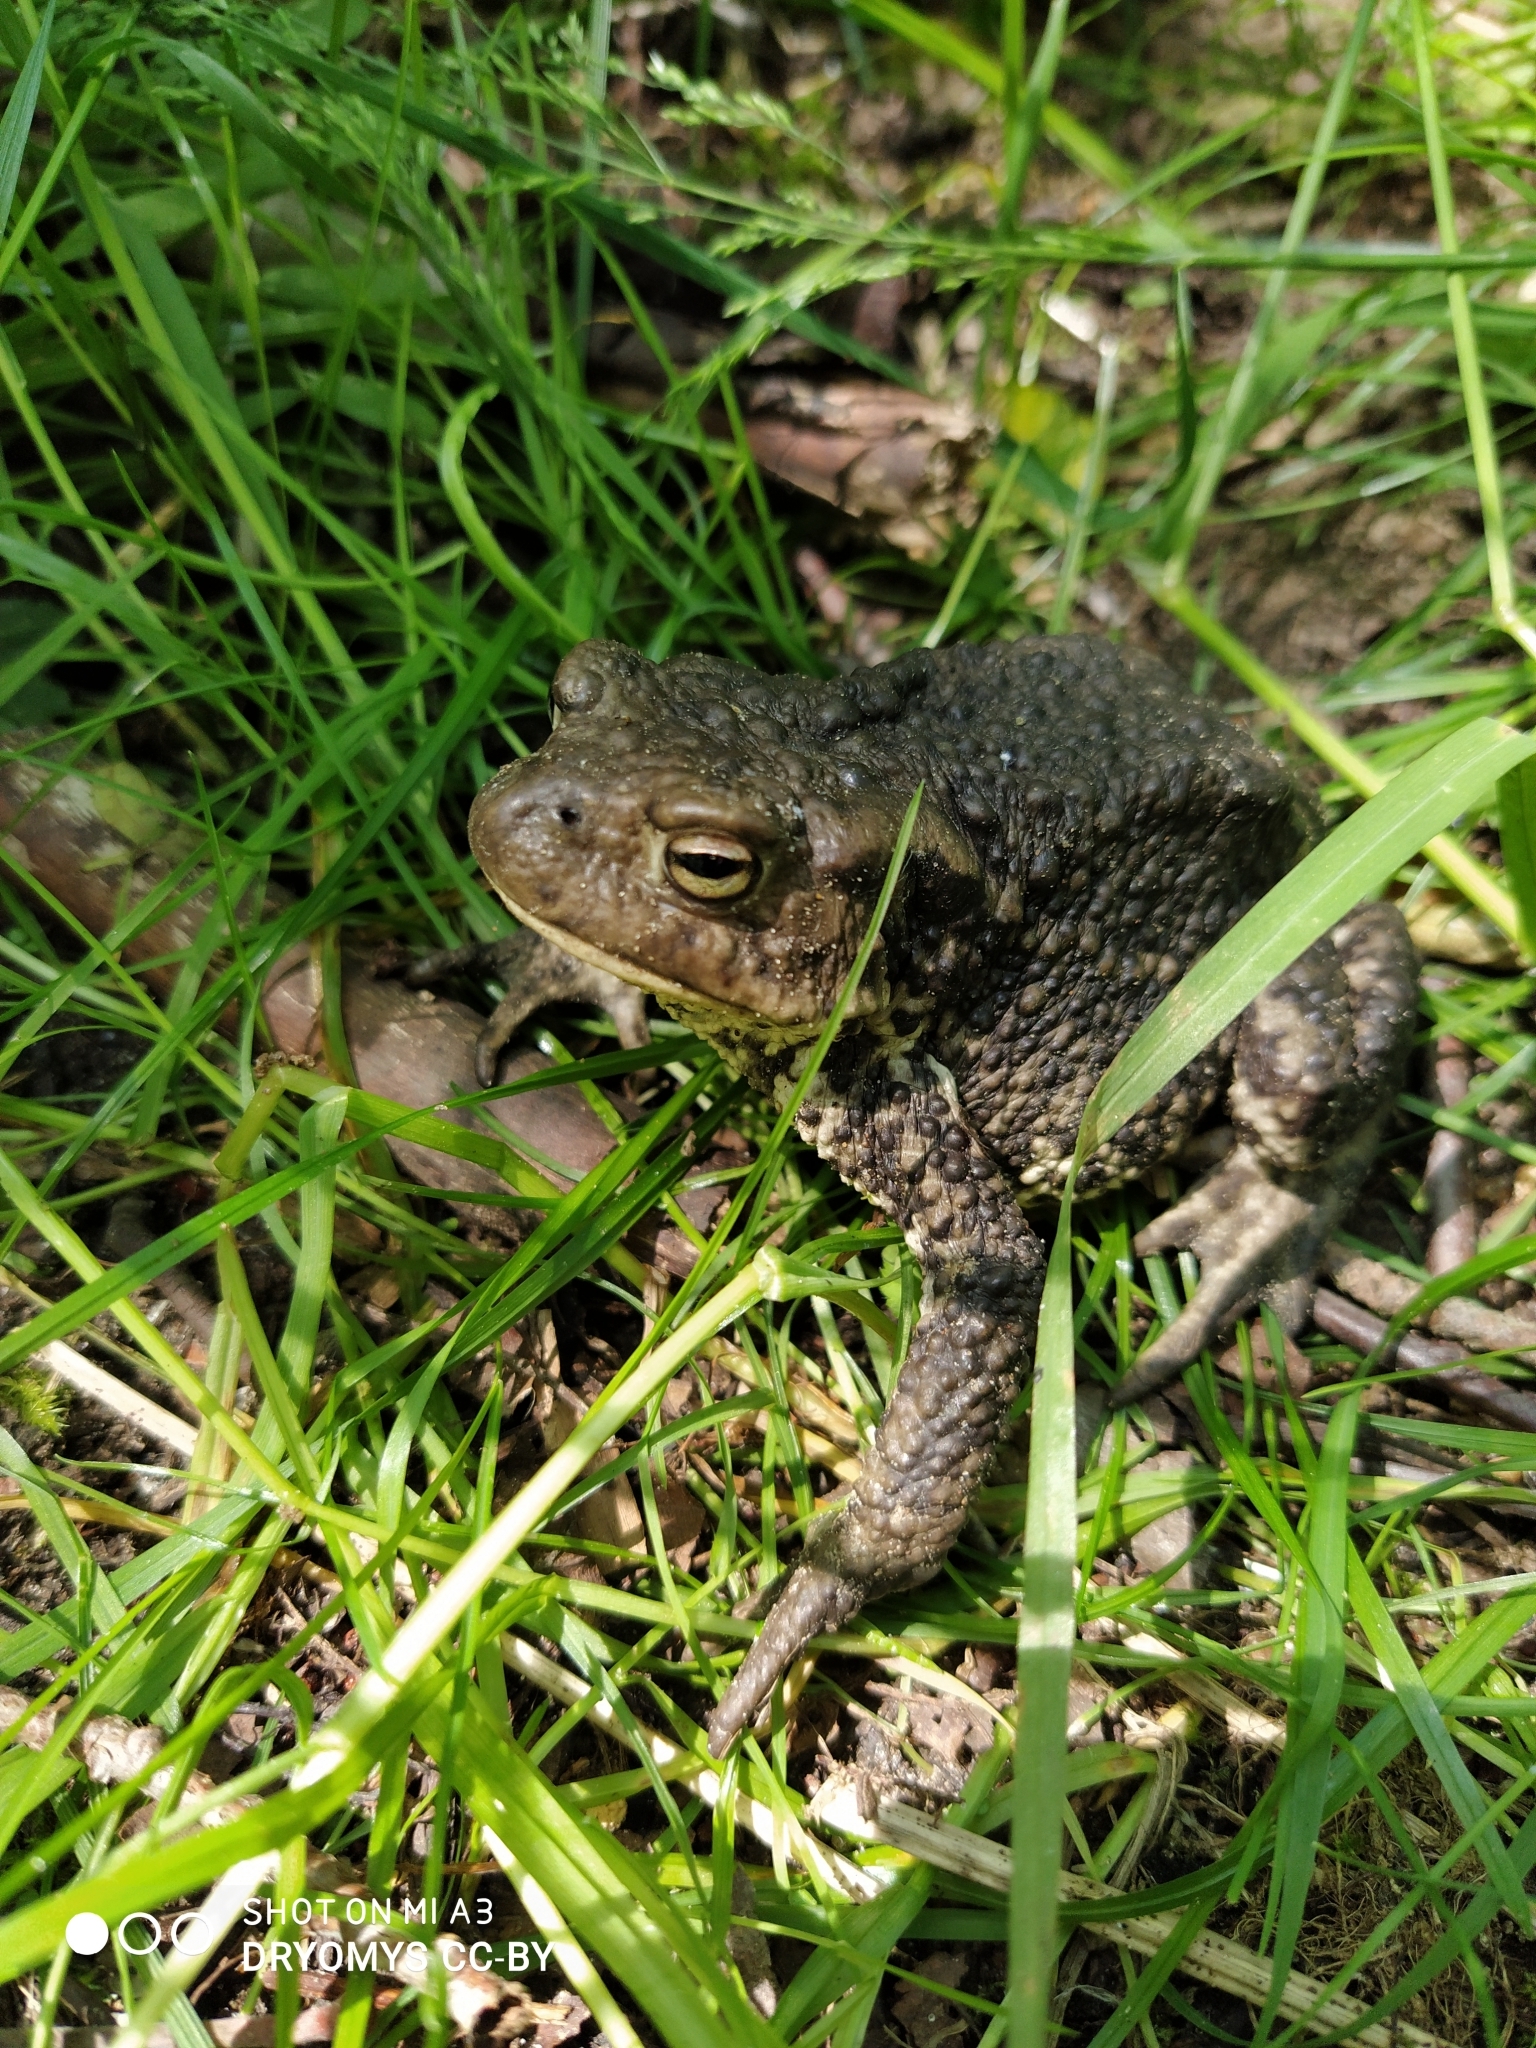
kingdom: Animalia
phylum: Chordata
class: Amphibia
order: Anura
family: Bufonidae
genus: Bufo
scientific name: Bufo bufo
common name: Common toad
